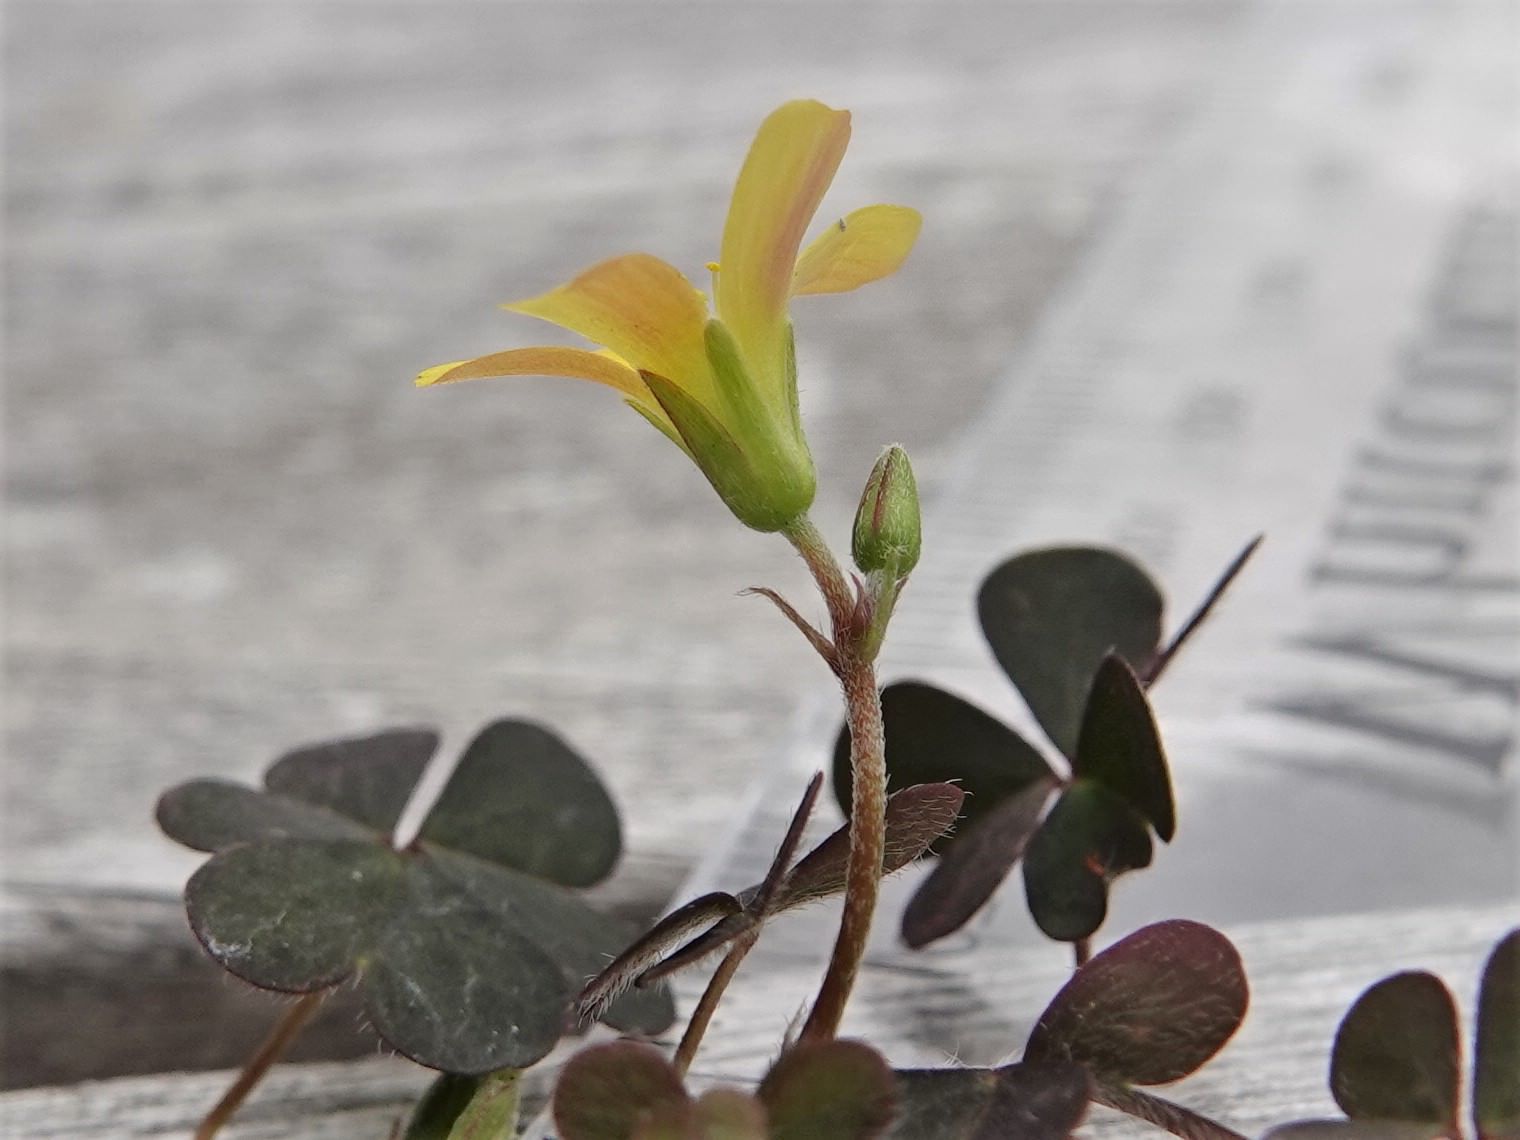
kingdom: Plantae
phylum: Tracheophyta
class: Magnoliopsida
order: Oxalidales
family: Oxalidaceae
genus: Oxalis
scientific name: Oxalis corniculata
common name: Procumbent yellow-sorrel
